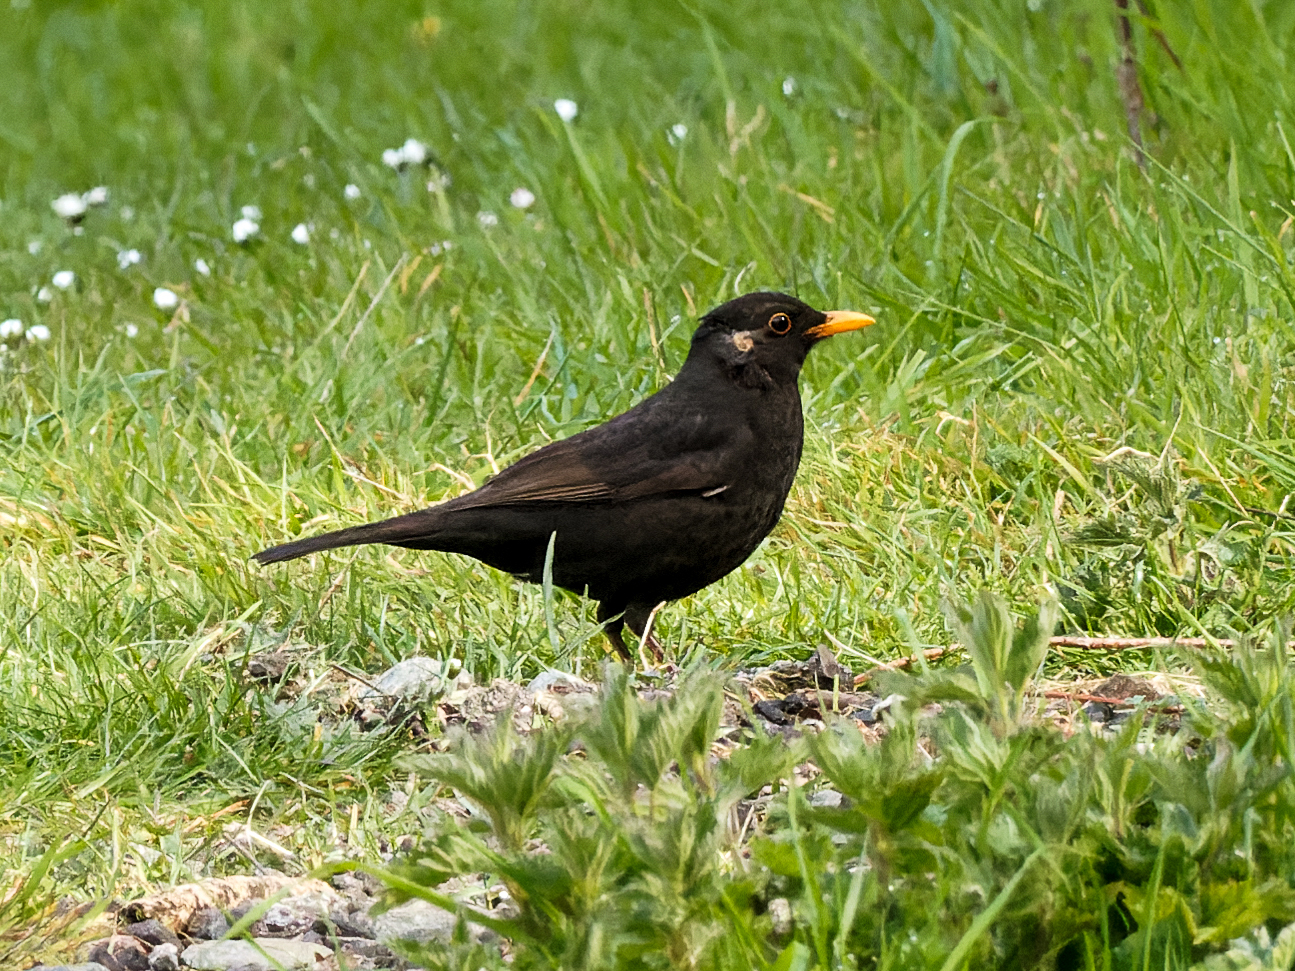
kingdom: Animalia
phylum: Chordata
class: Aves
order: Passeriformes
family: Turdidae
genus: Turdus
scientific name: Turdus merula
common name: Common blackbird
